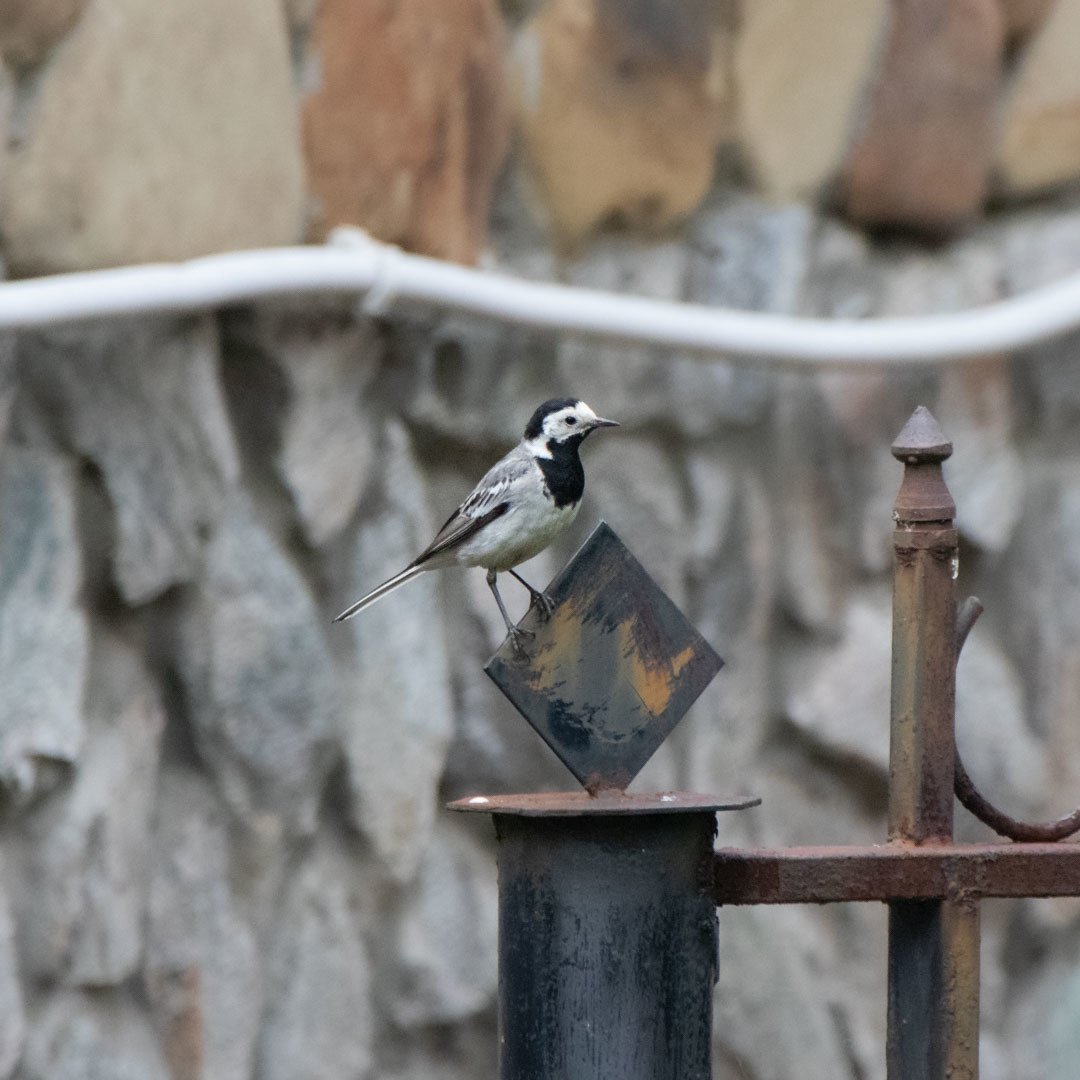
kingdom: Animalia
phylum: Chordata
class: Aves
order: Passeriformes
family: Motacillidae
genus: Motacilla
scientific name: Motacilla alba
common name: White wagtail
